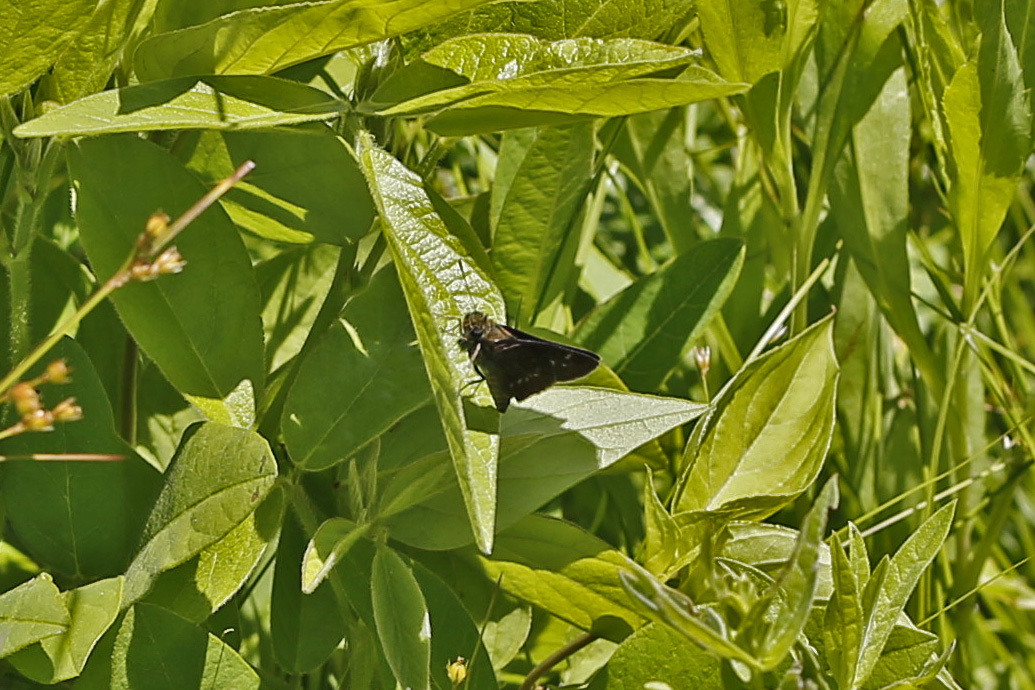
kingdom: Animalia
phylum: Arthropoda
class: Insecta
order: Lepidoptera
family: Hesperiidae
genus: Vernia
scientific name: Vernia verna
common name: Little glassywing
